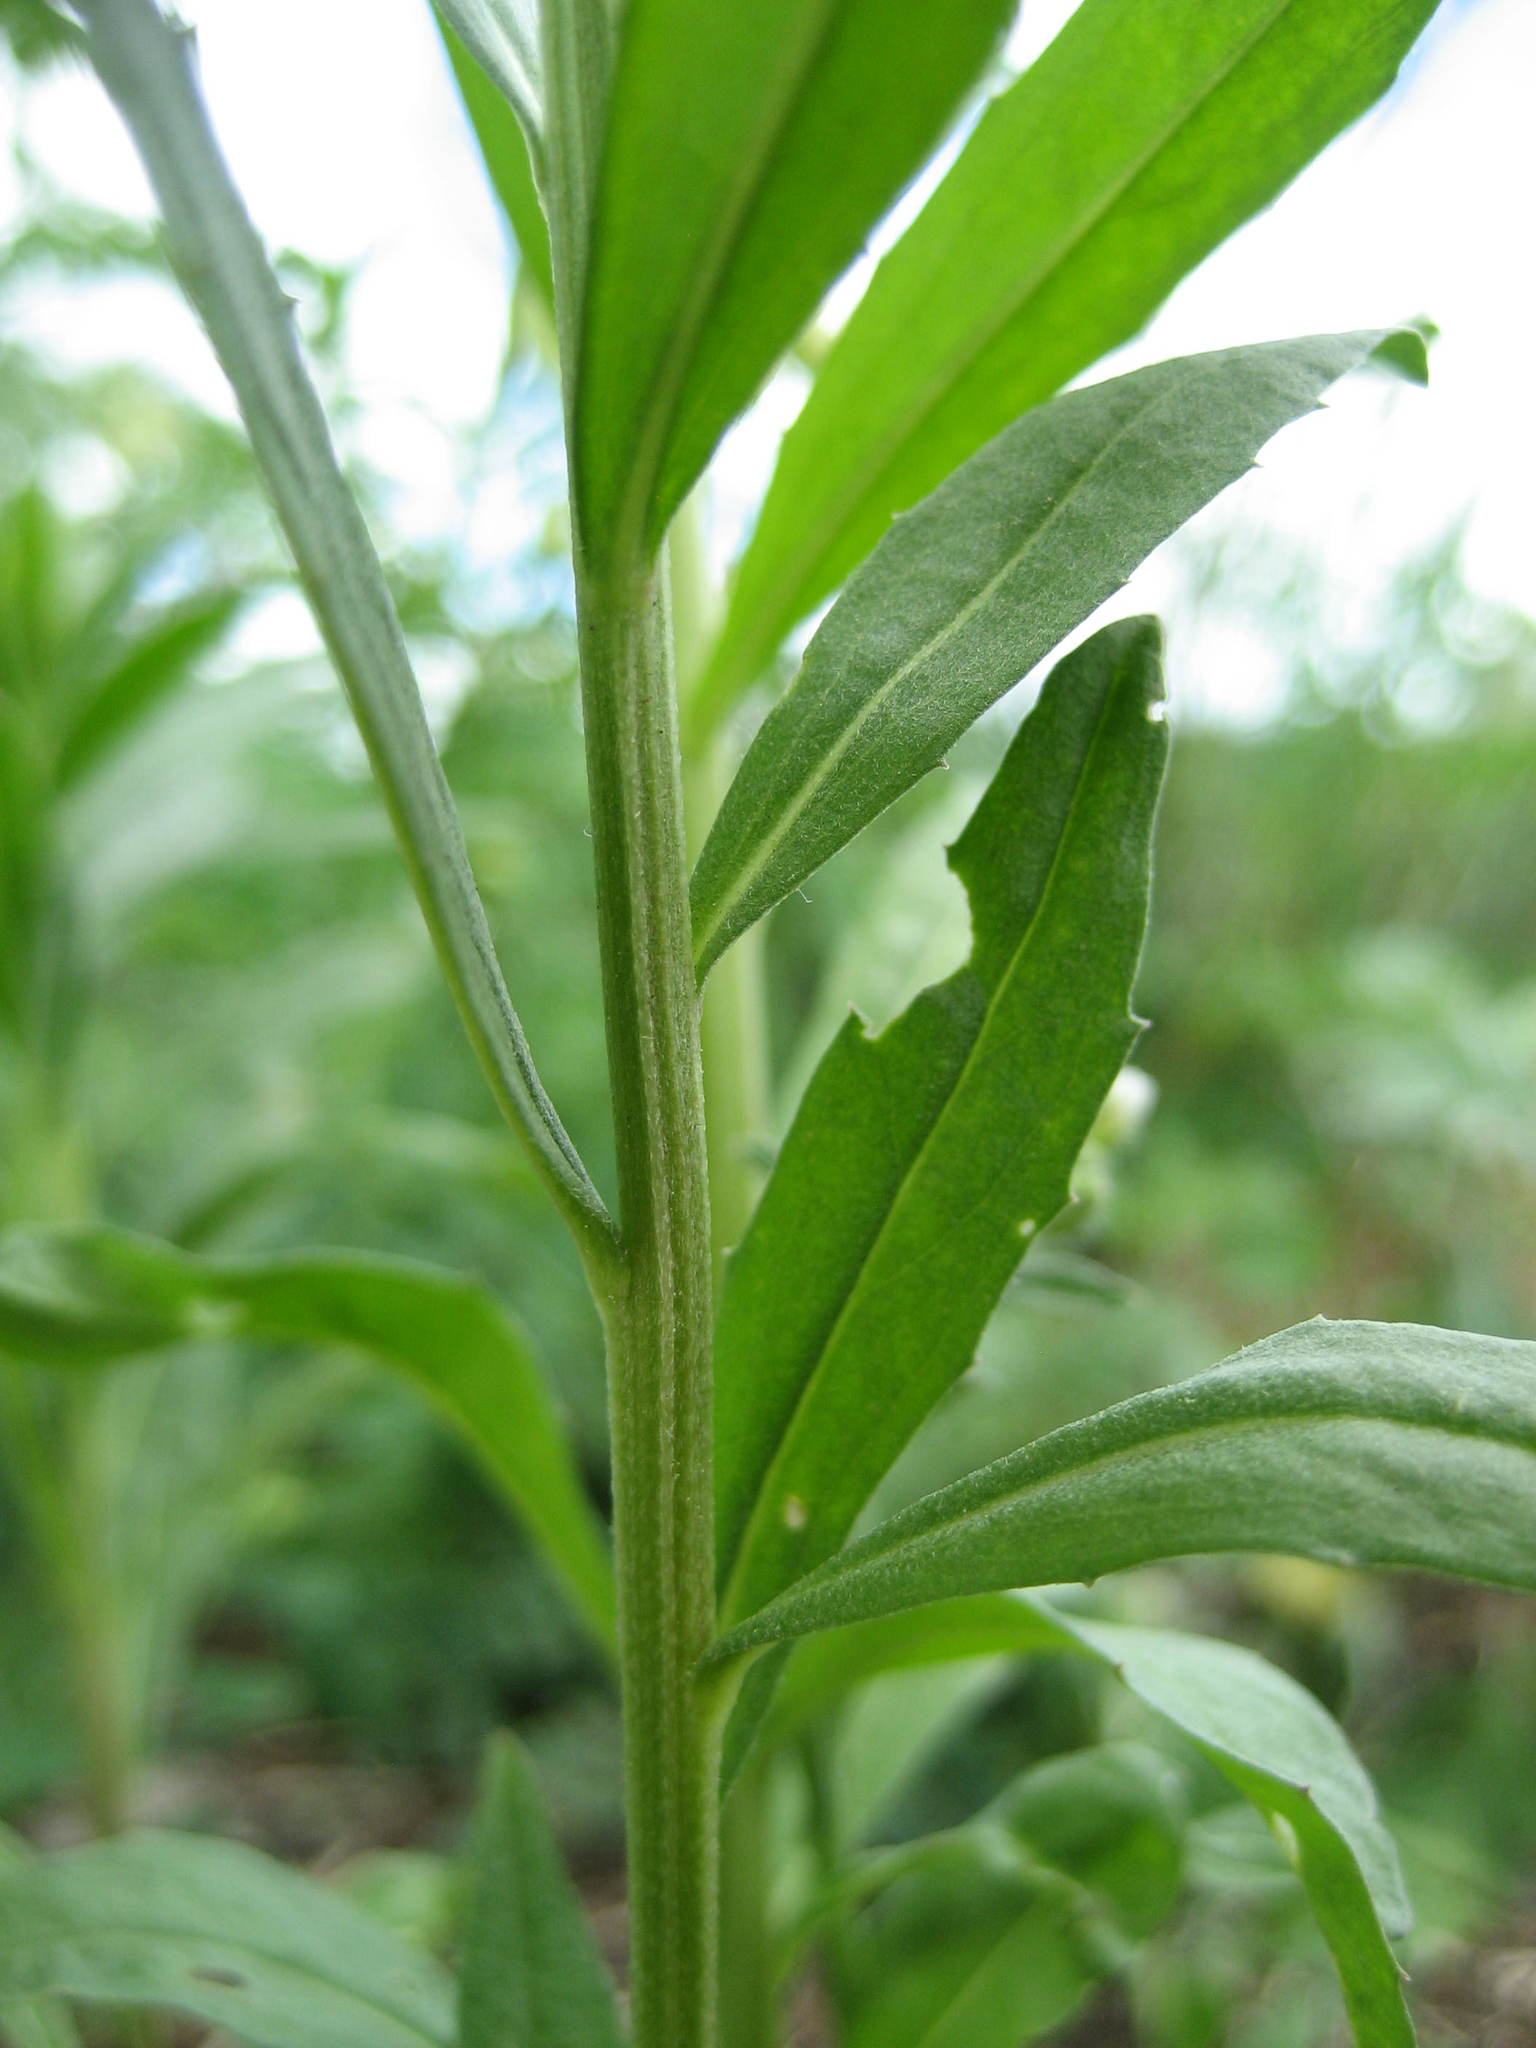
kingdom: Plantae
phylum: Tracheophyta
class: Magnoliopsida
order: Brassicales
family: Brassicaceae
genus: Erysimum
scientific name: Erysimum cheiranthoides
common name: Treacle mustard
